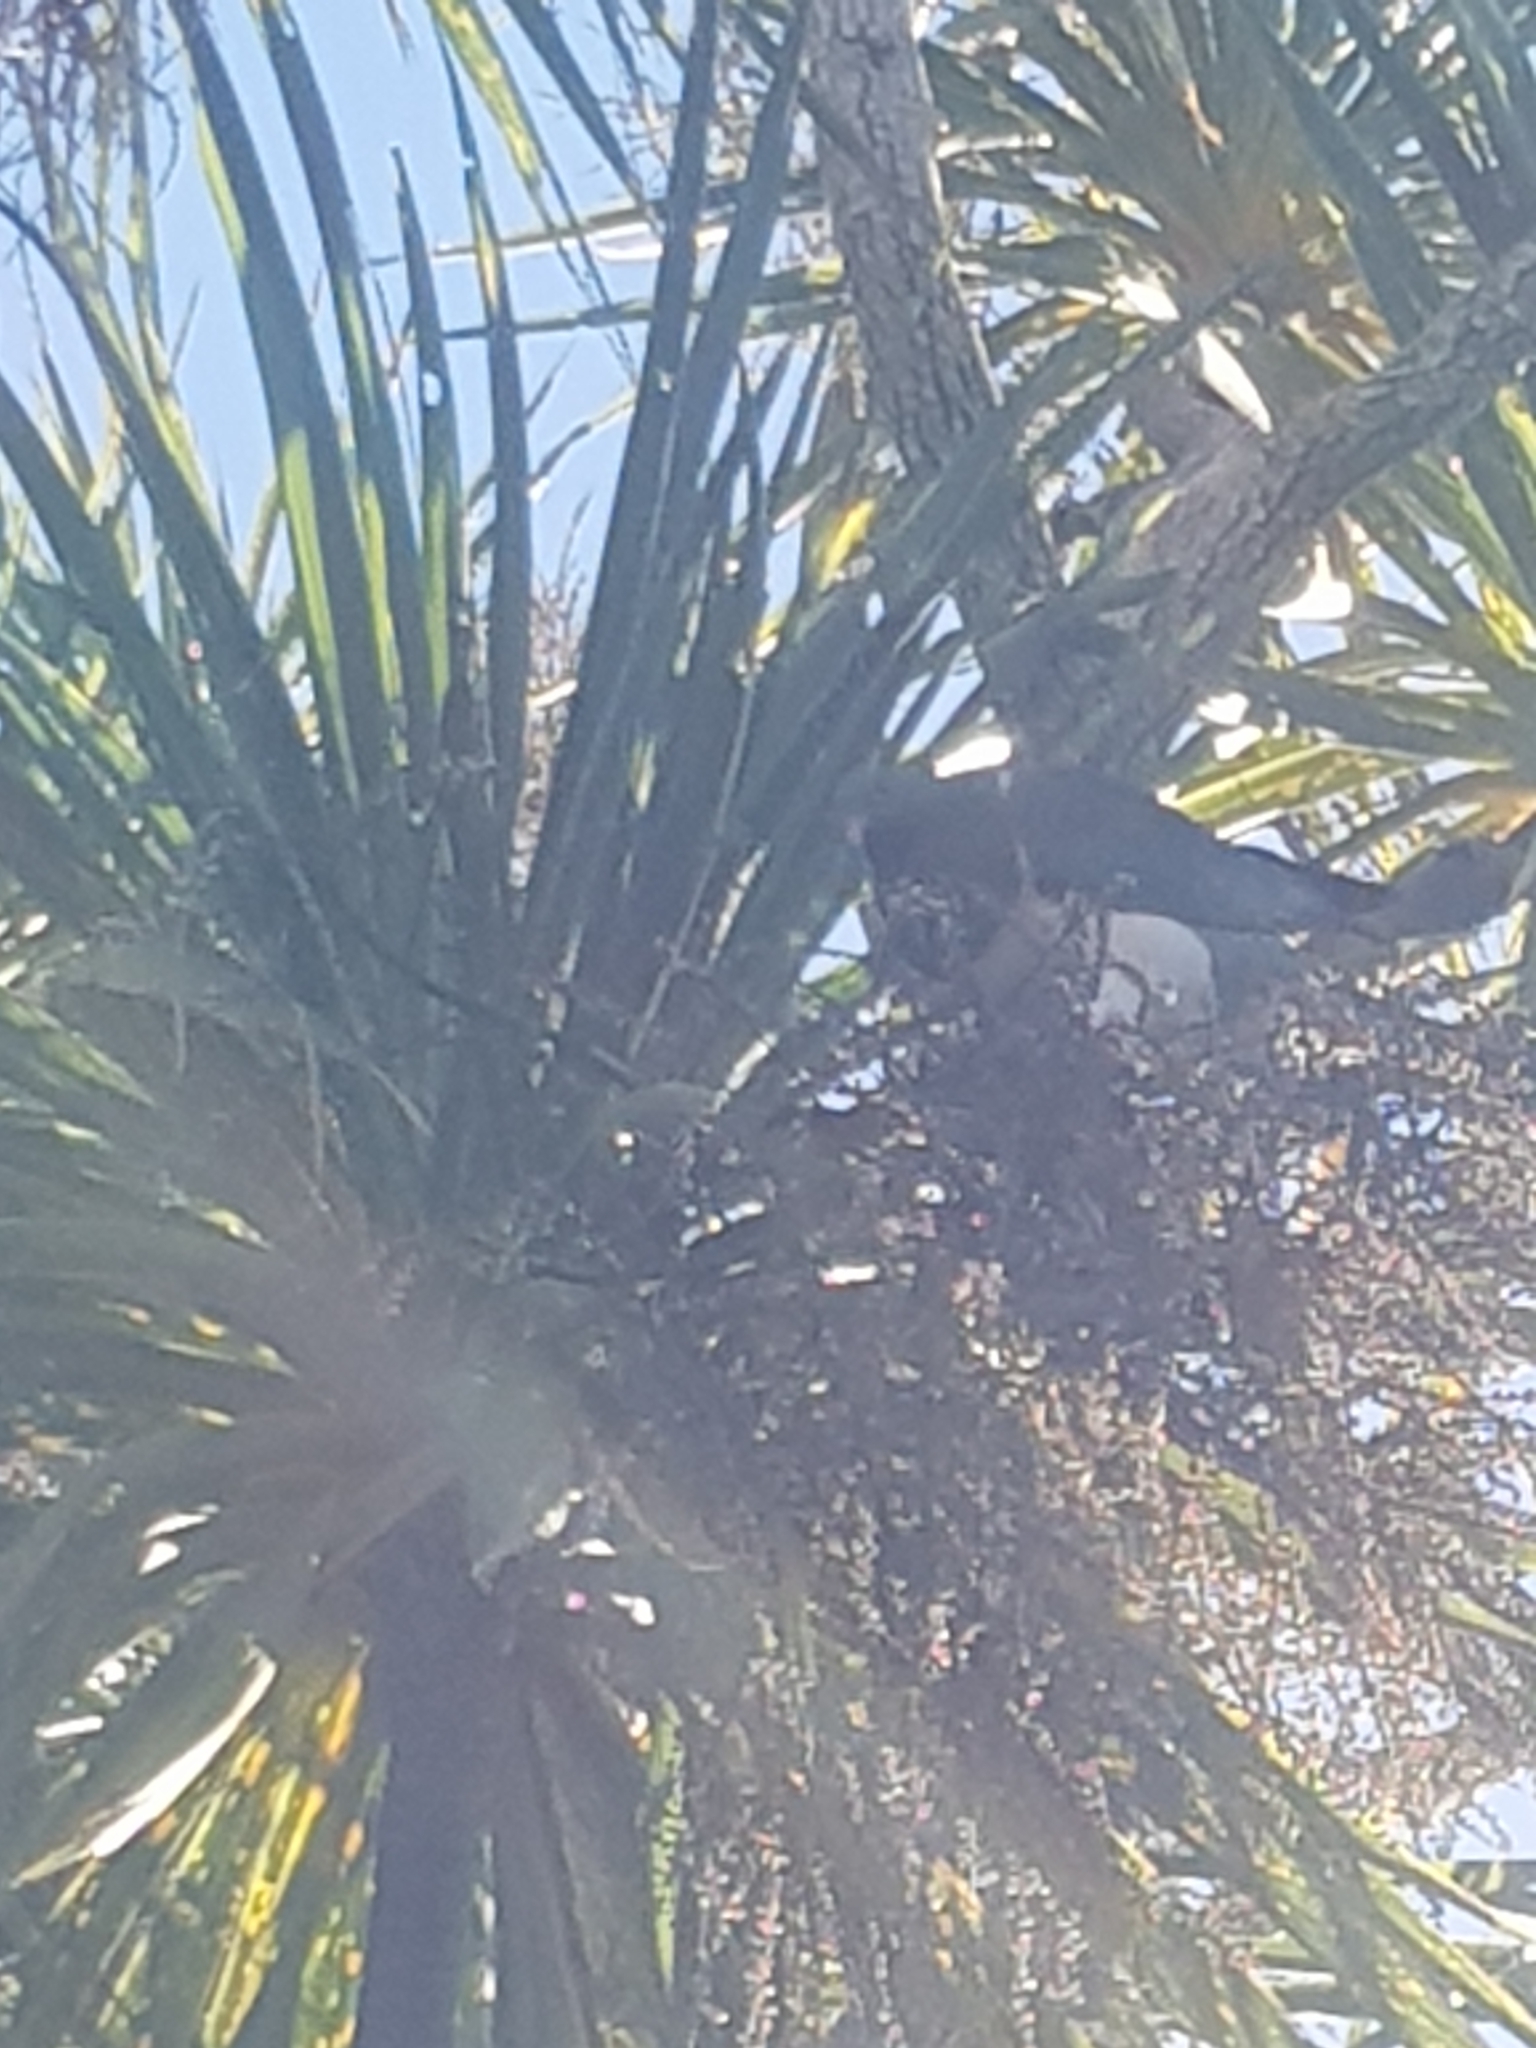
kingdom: Animalia
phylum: Chordata
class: Aves
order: Columbiformes
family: Columbidae
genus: Hemiphaga
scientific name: Hemiphaga novaeseelandiae
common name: New zealand pigeon
